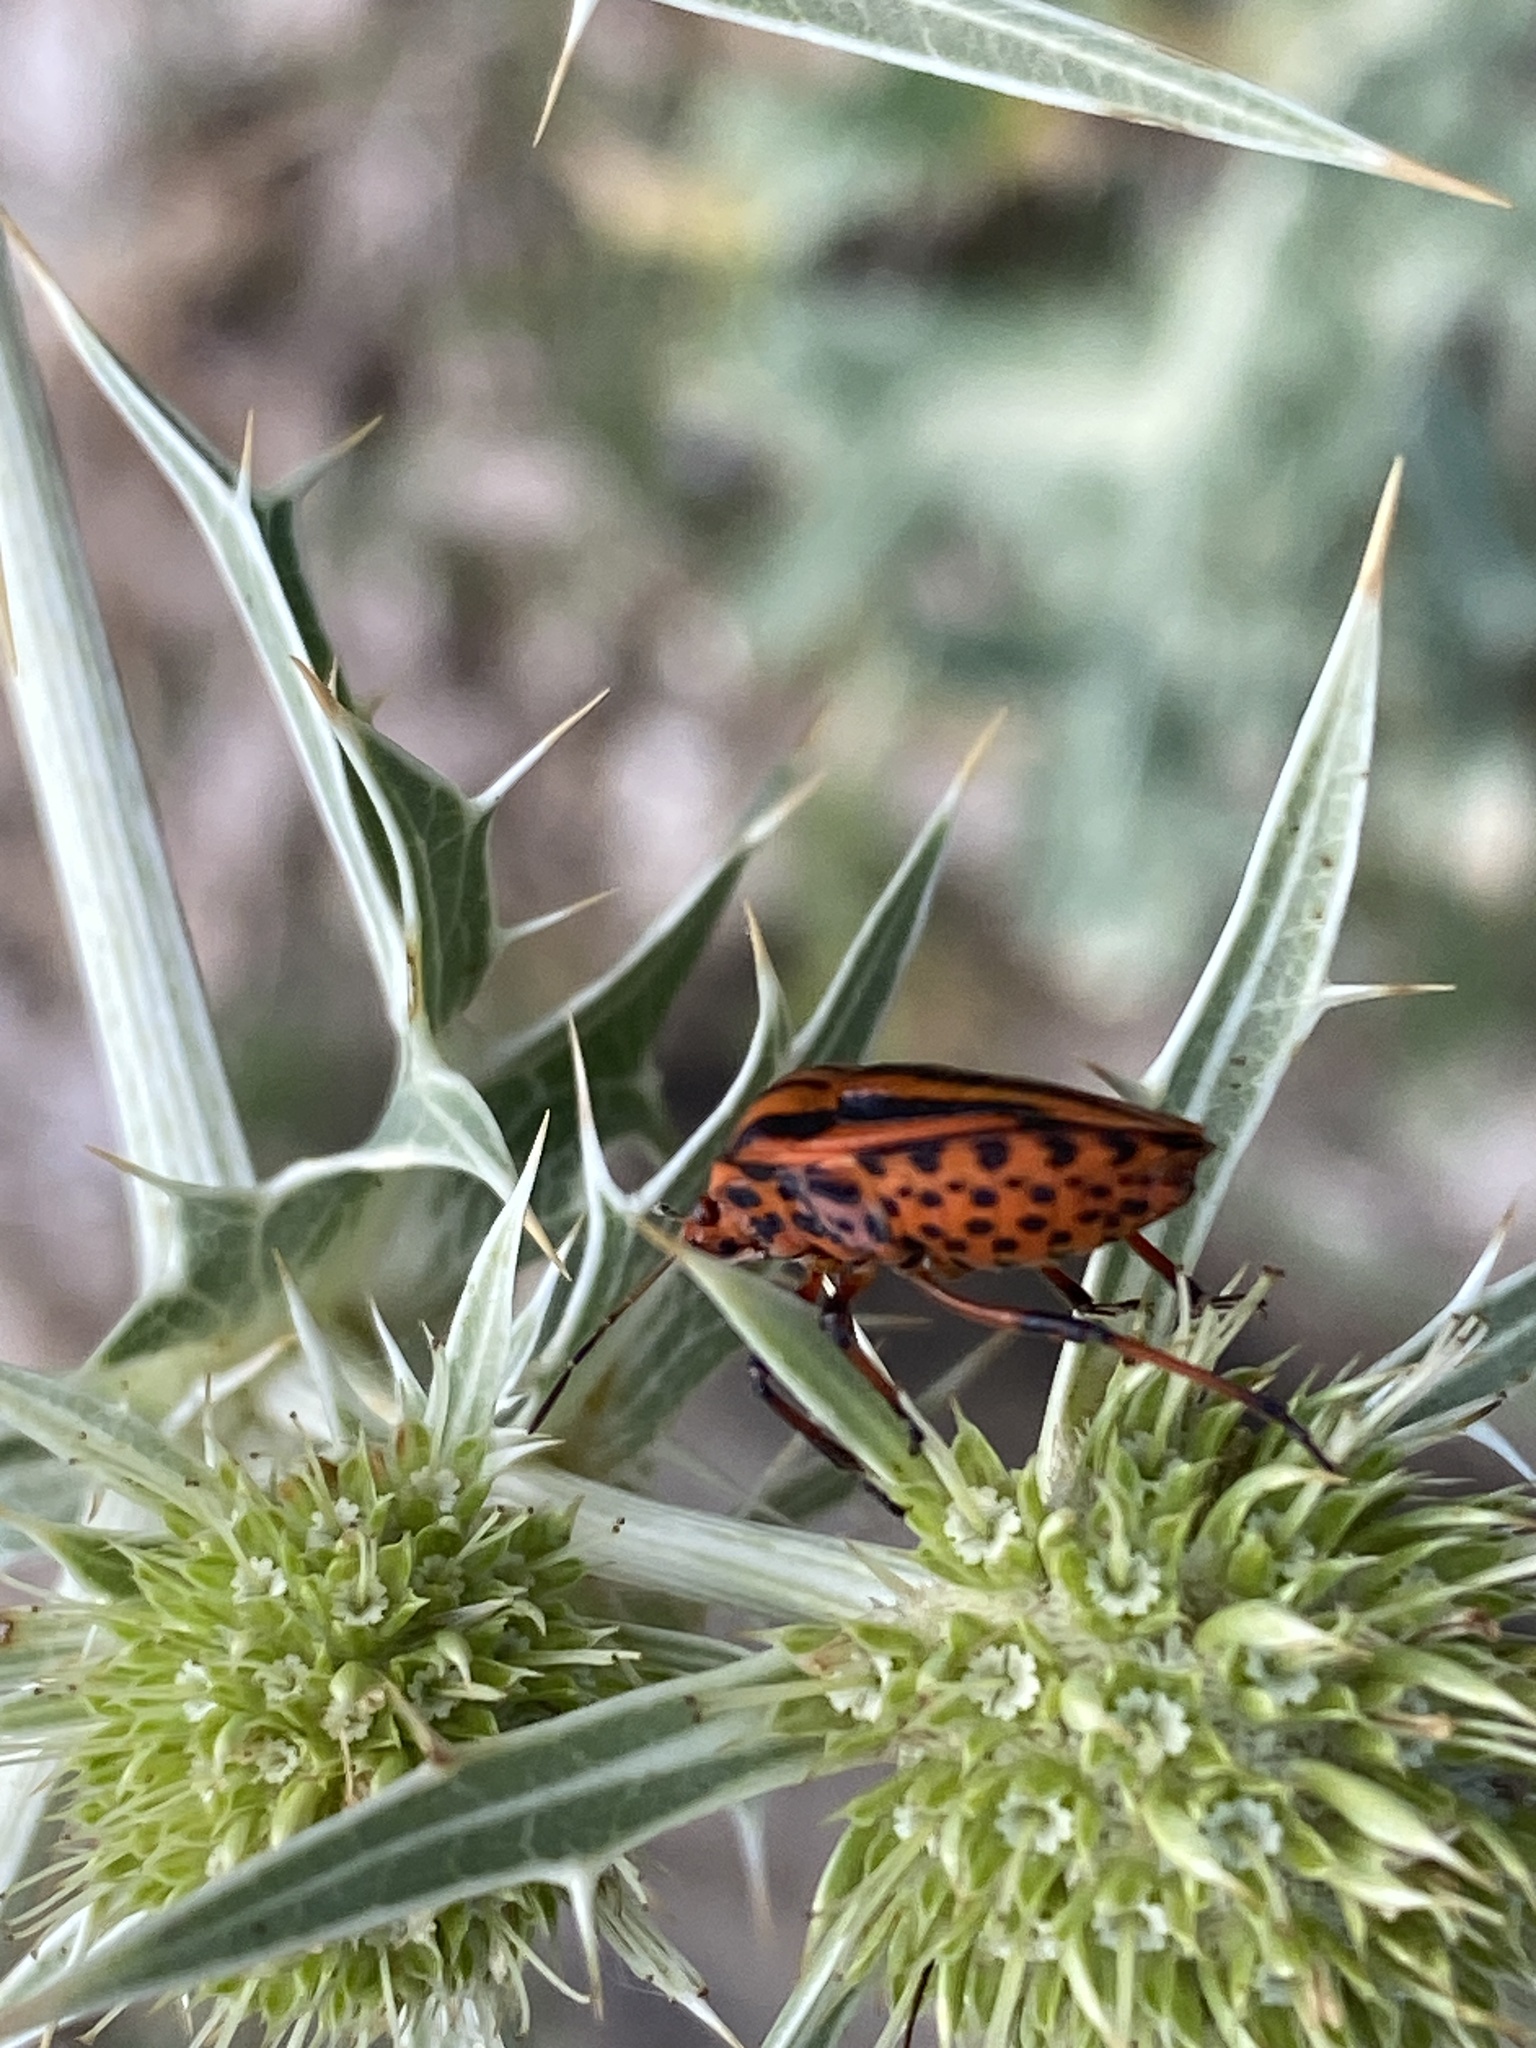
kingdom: Animalia
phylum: Arthropoda
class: Insecta
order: Hemiptera
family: Pentatomidae
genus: Graphosoma
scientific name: Graphosoma italicum
